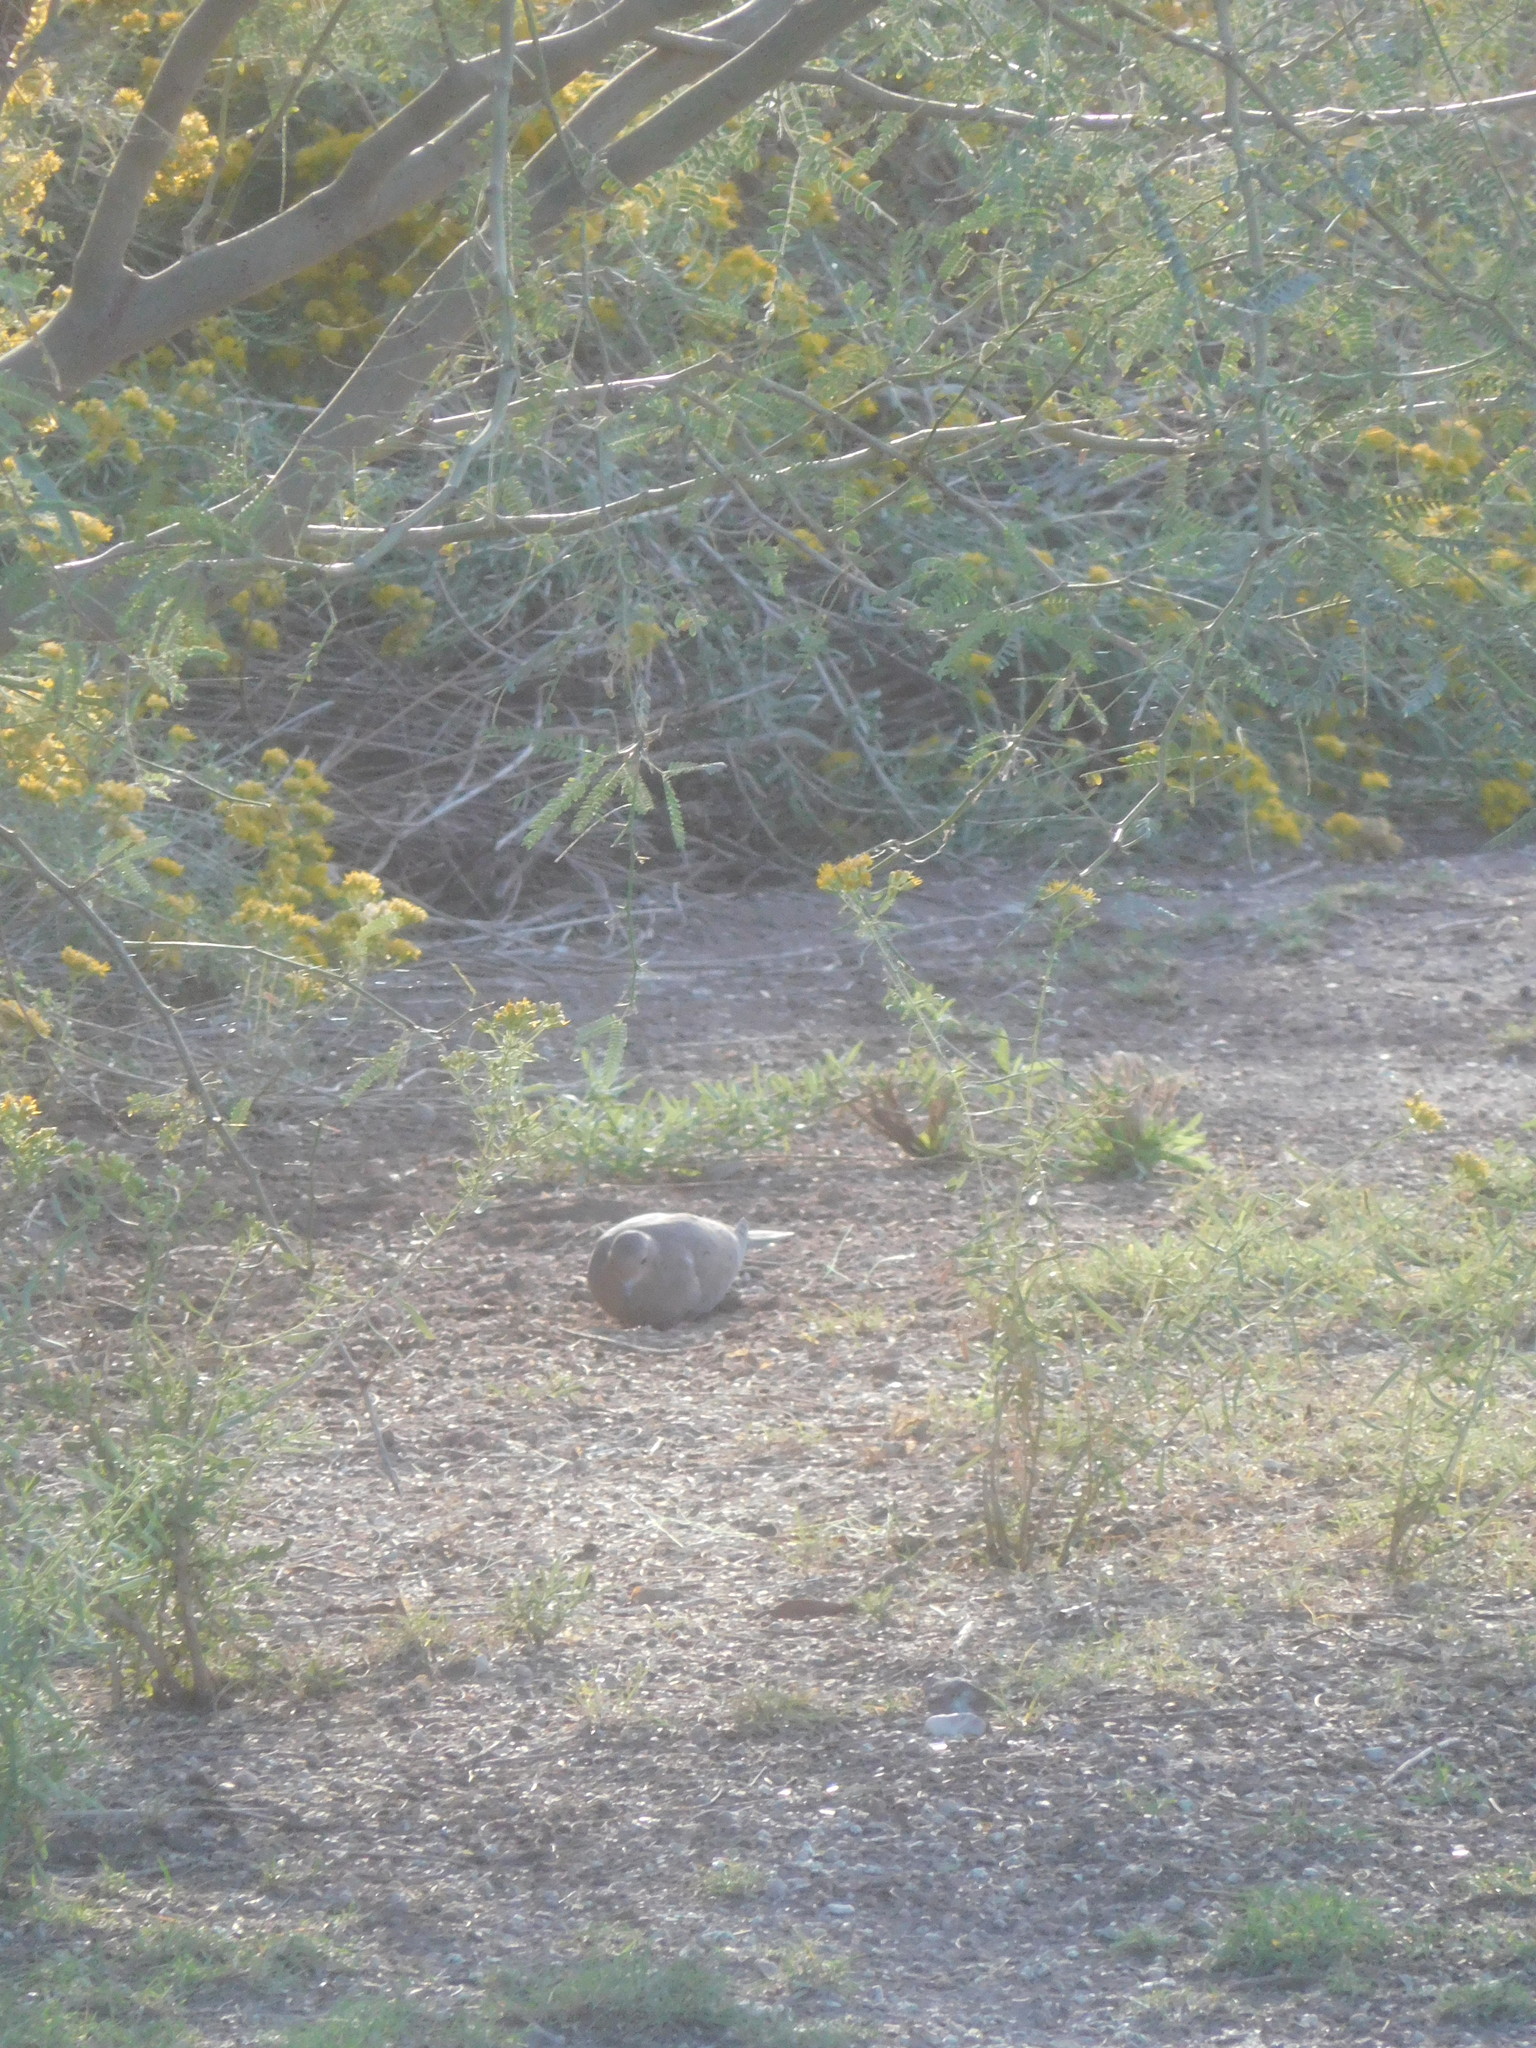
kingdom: Animalia
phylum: Chordata
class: Aves
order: Columbiformes
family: Columbidae
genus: Zenaida
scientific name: Zenaida macroura
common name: Mourning dove
